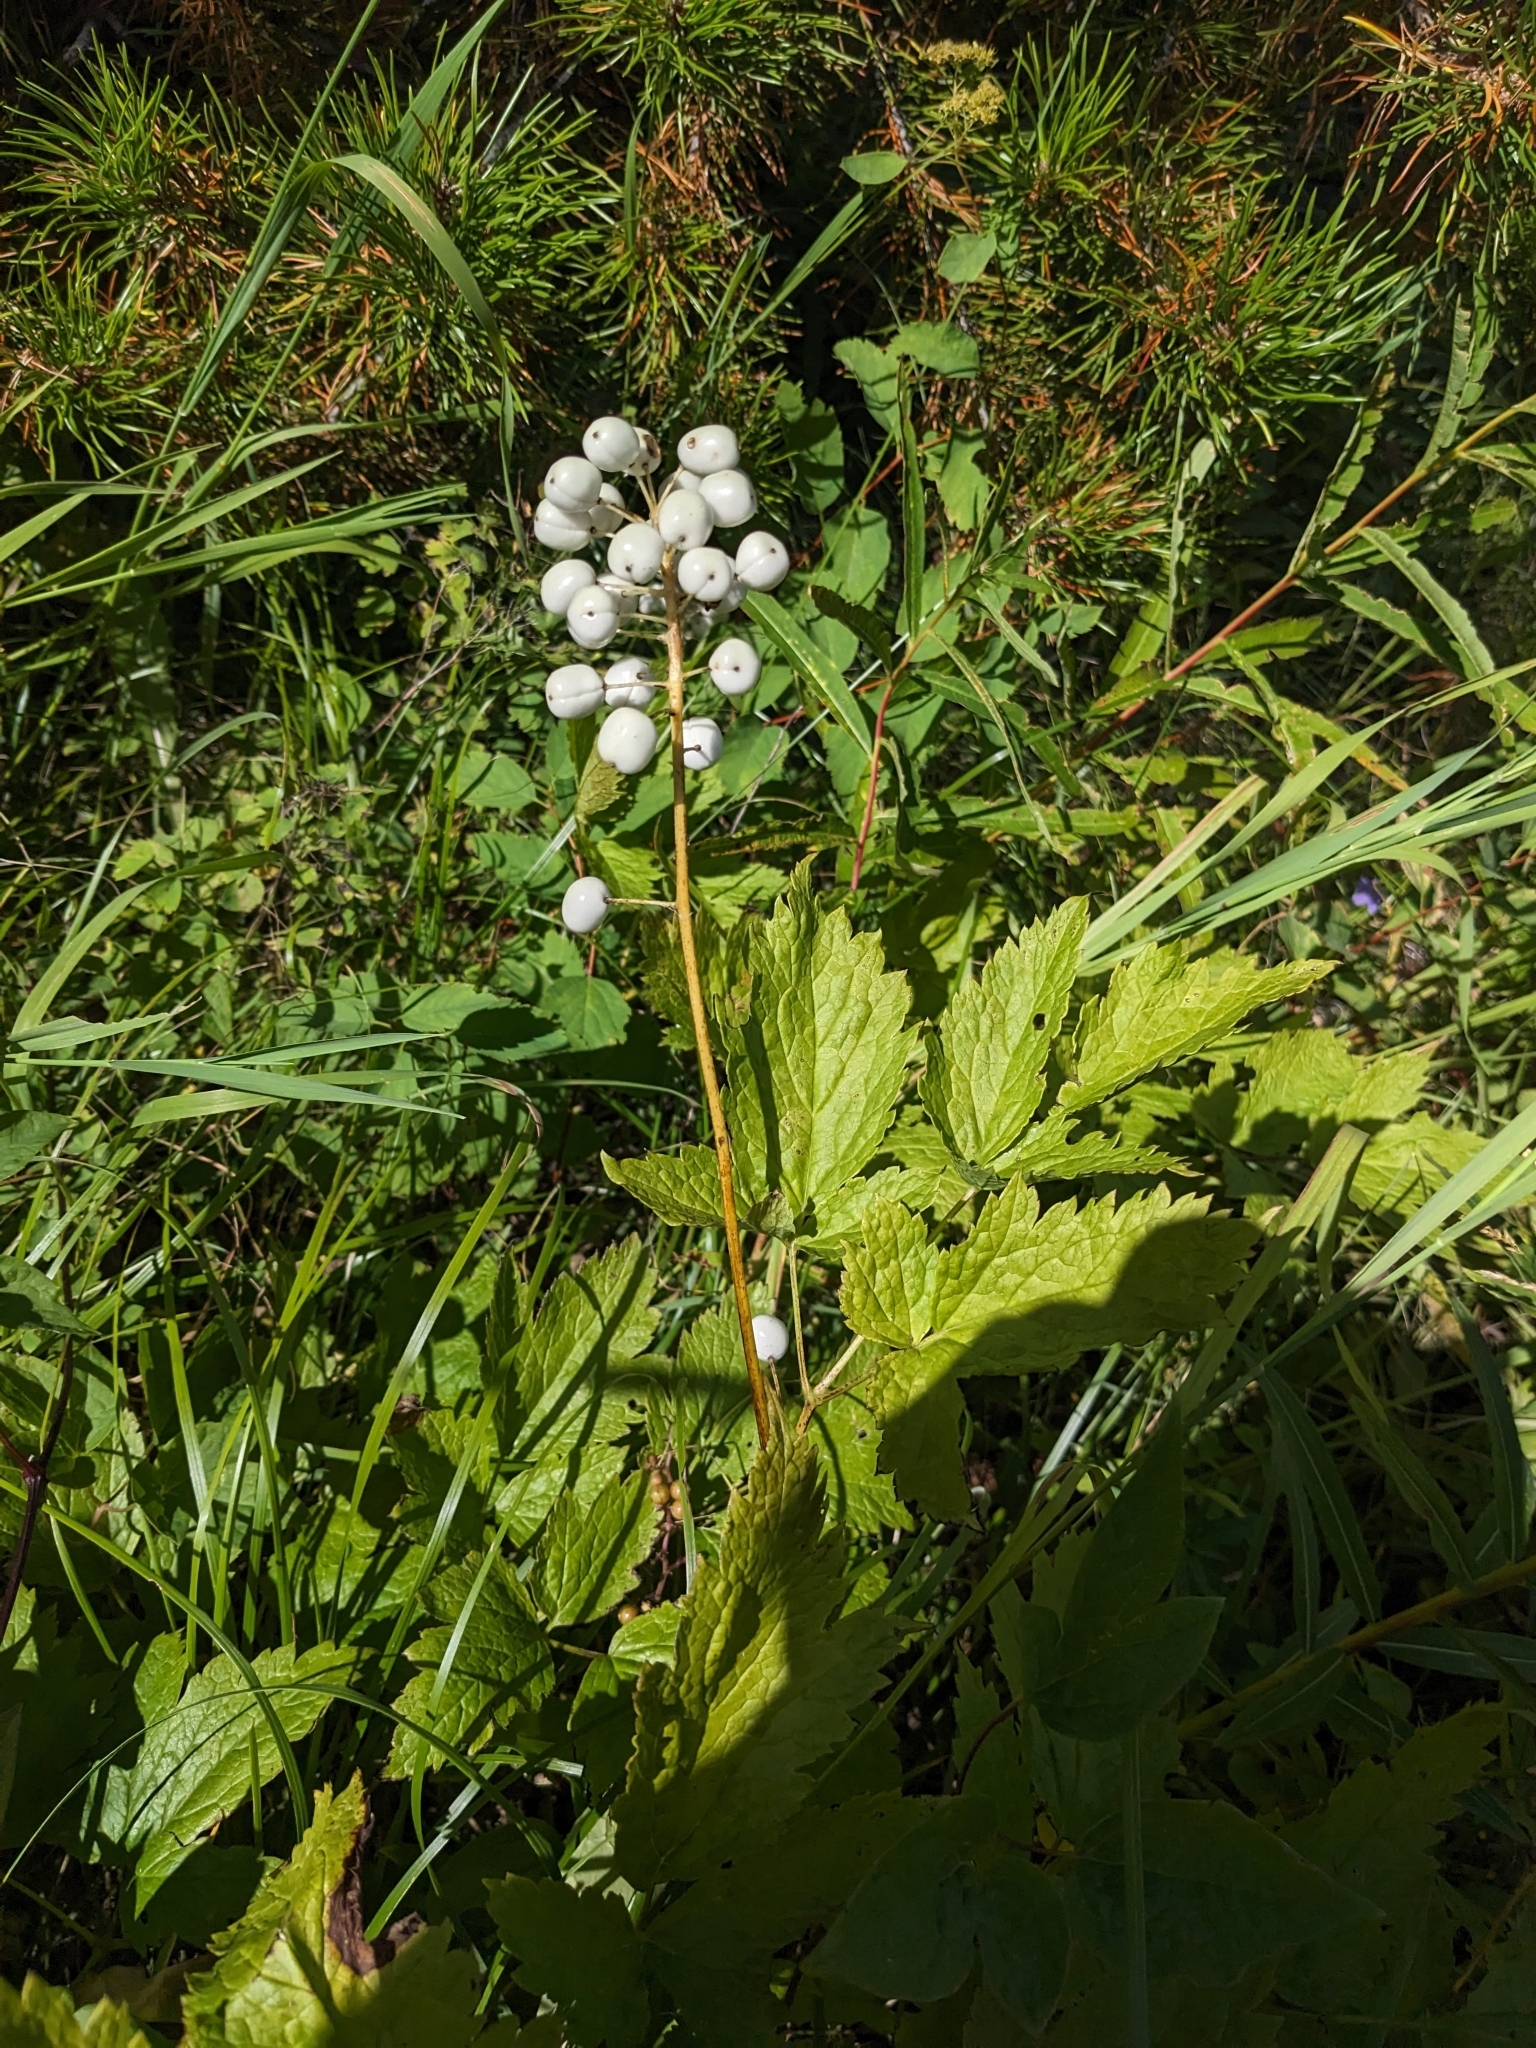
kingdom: Plantae
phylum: Tracheophyta
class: Magnoliopsida
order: Ranunculales
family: Ranunculaceae
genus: Actaea
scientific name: Actaea rubra
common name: Red baneberry
